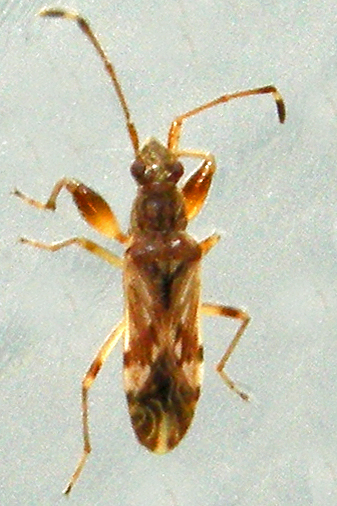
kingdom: Animalia
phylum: Arthropoda
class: Insecta
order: Hemiptera
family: Rhyparochromidae
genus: Neopamera
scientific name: Neopamera albocincta
